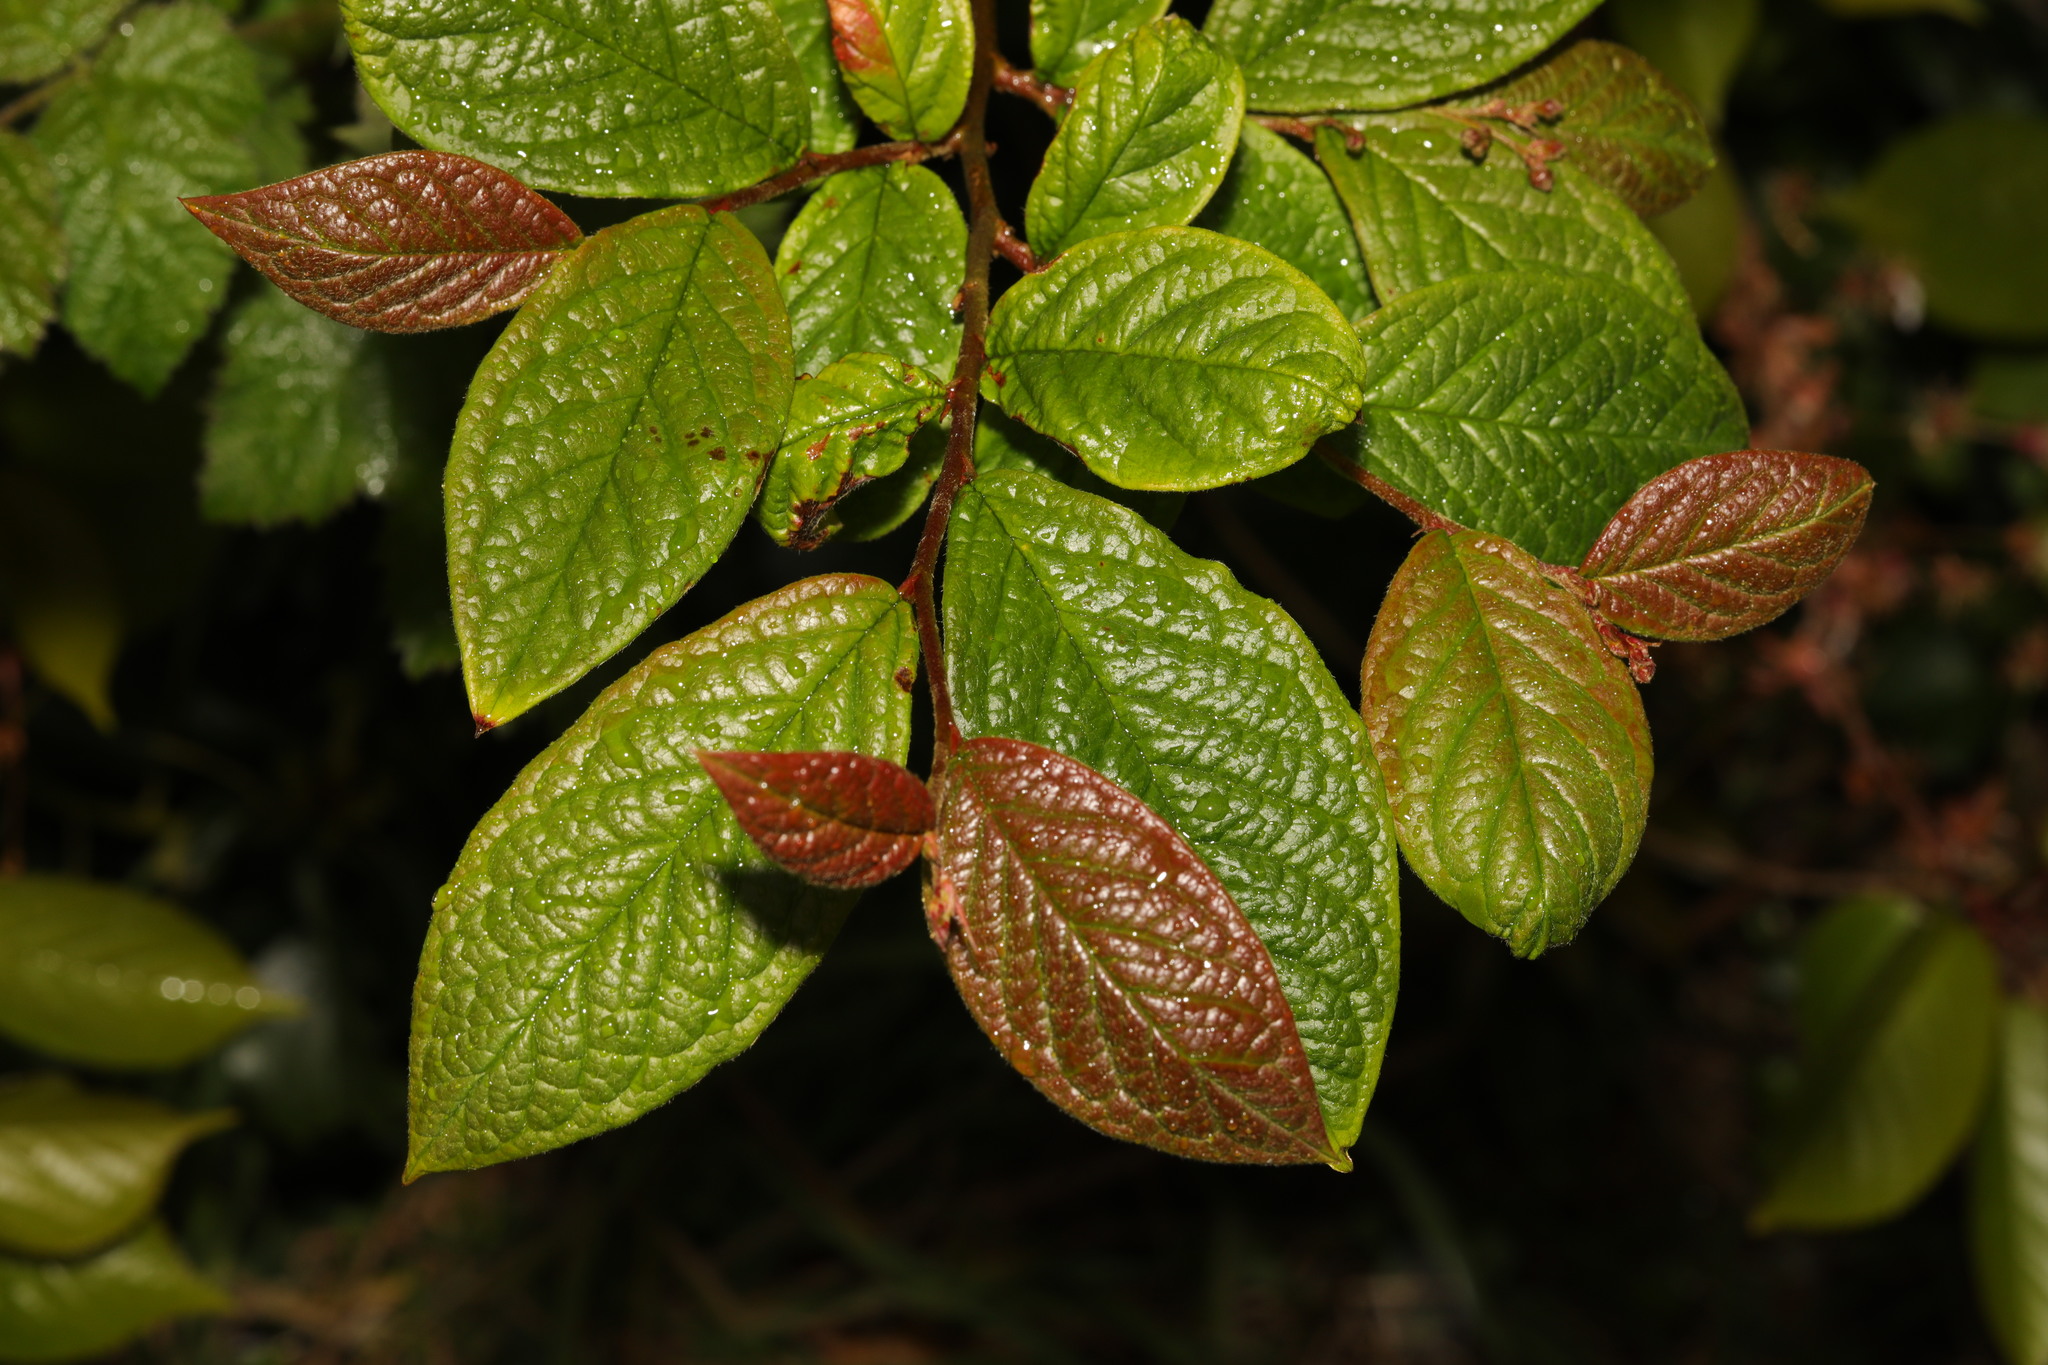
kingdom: Plantae
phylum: Tracheophyta
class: Magnoliopsida
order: Rosales
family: Rosaceae
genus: Cotoneaster
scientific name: Cotoneaster bullatus
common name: Hollyberry cotoneaster
